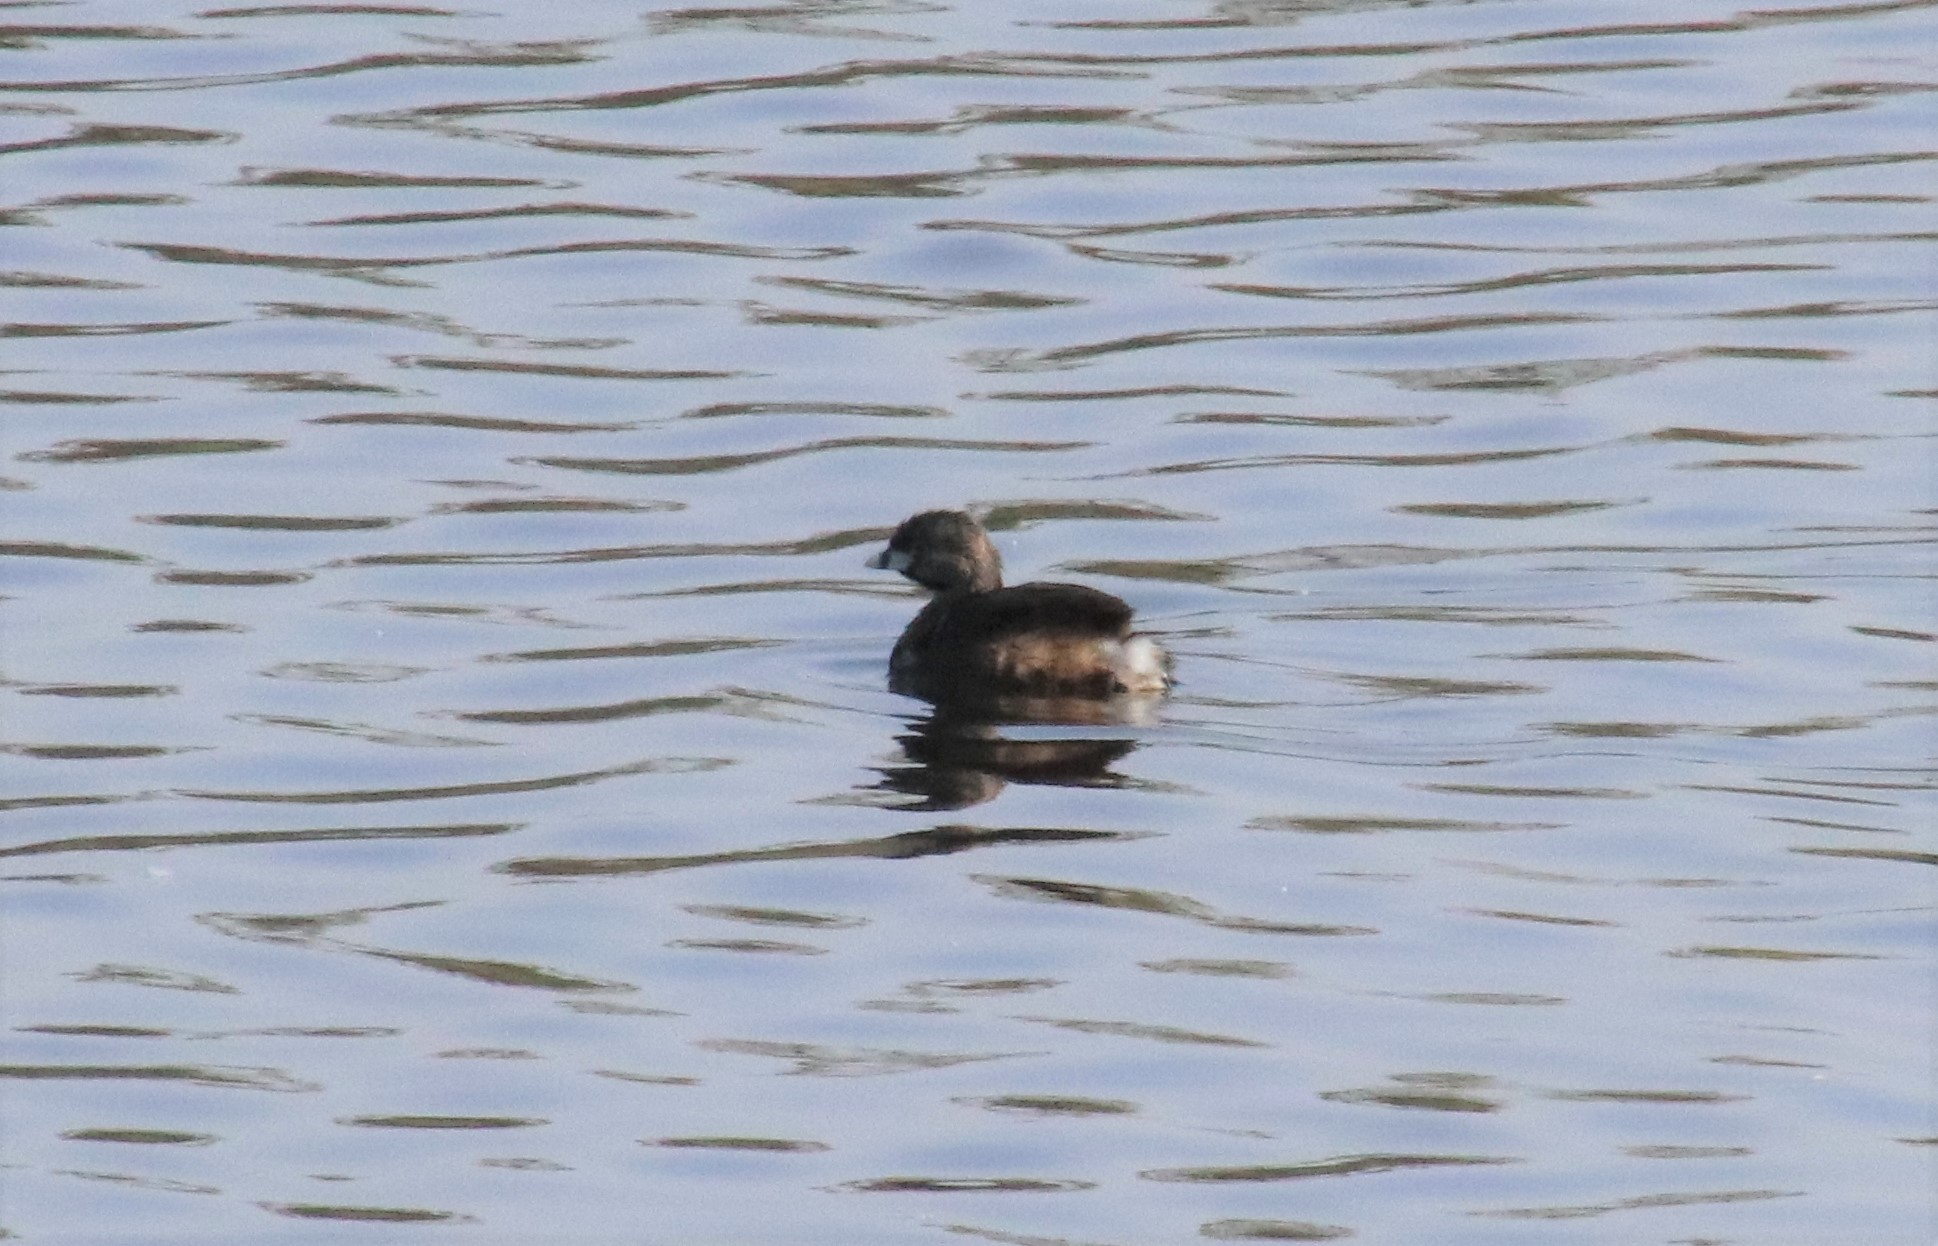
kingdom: Animalia
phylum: Chordata
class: Aves
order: Podicipediformes
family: Podicipedidae
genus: Podilymbus
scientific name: Podilymbus podiceps
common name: Pied-billed grebe
